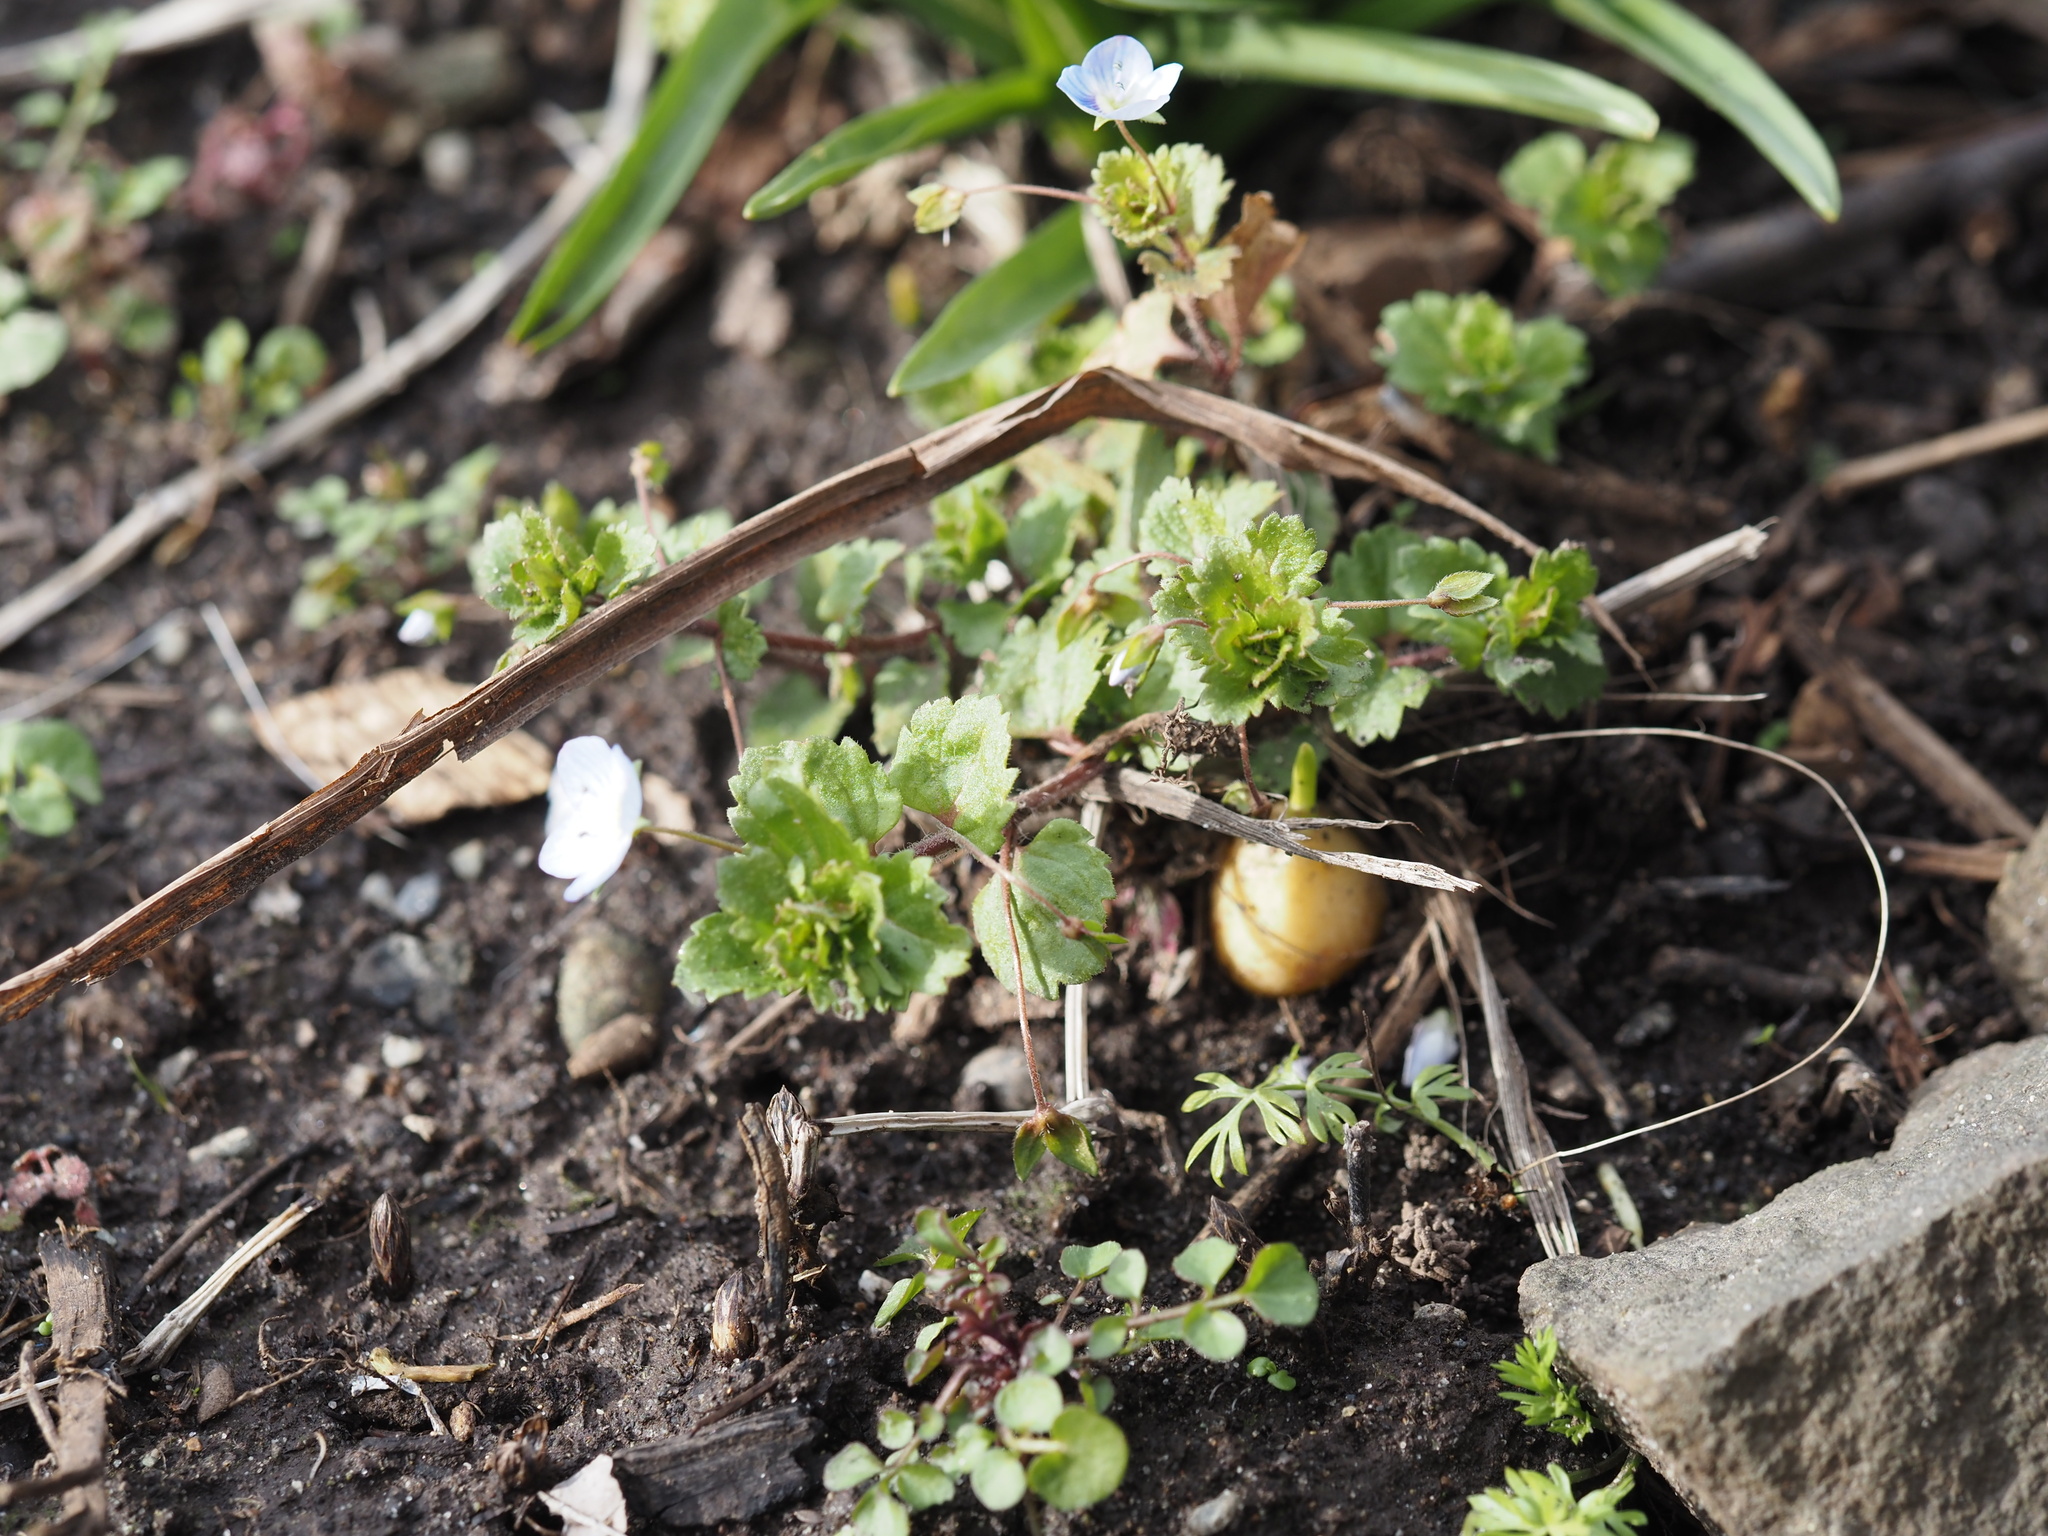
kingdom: Plantae
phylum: Tracheophyta
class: Magnoliopsida
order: Lamiales
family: Plantaginaceae
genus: Veronica
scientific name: Veronica persica
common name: Common field-speedwell
